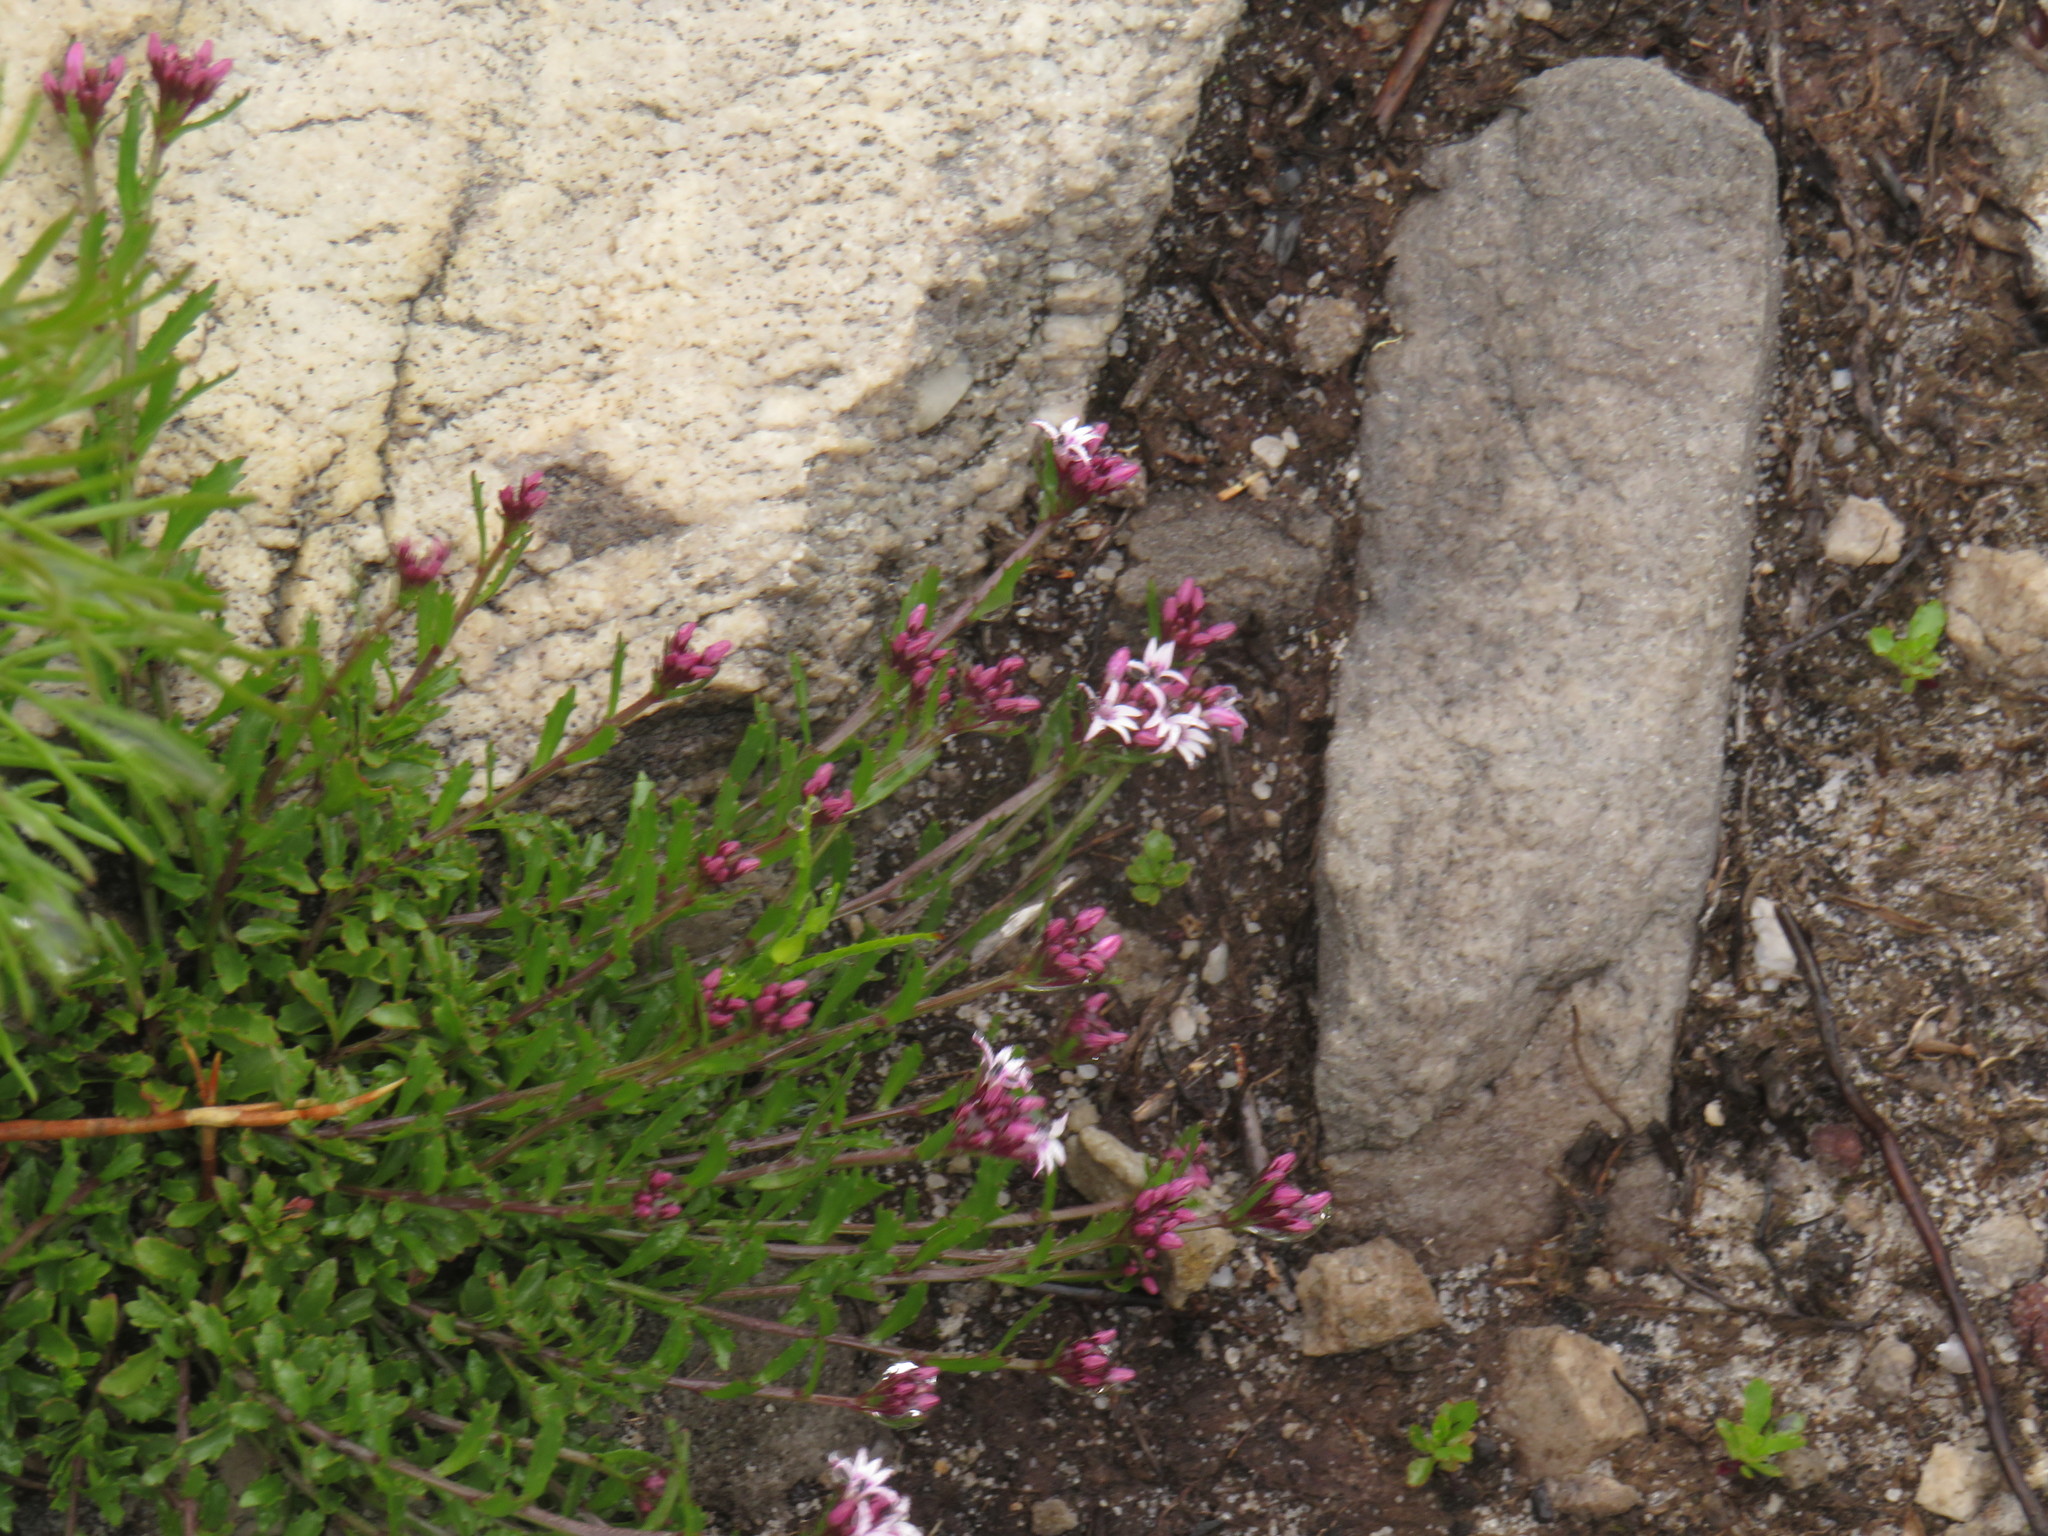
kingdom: Plantae
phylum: Tracheophyta
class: Magnoliopsida
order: Asterales
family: Campanulaceae
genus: Lobelia
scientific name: Lobelia jasionoides
